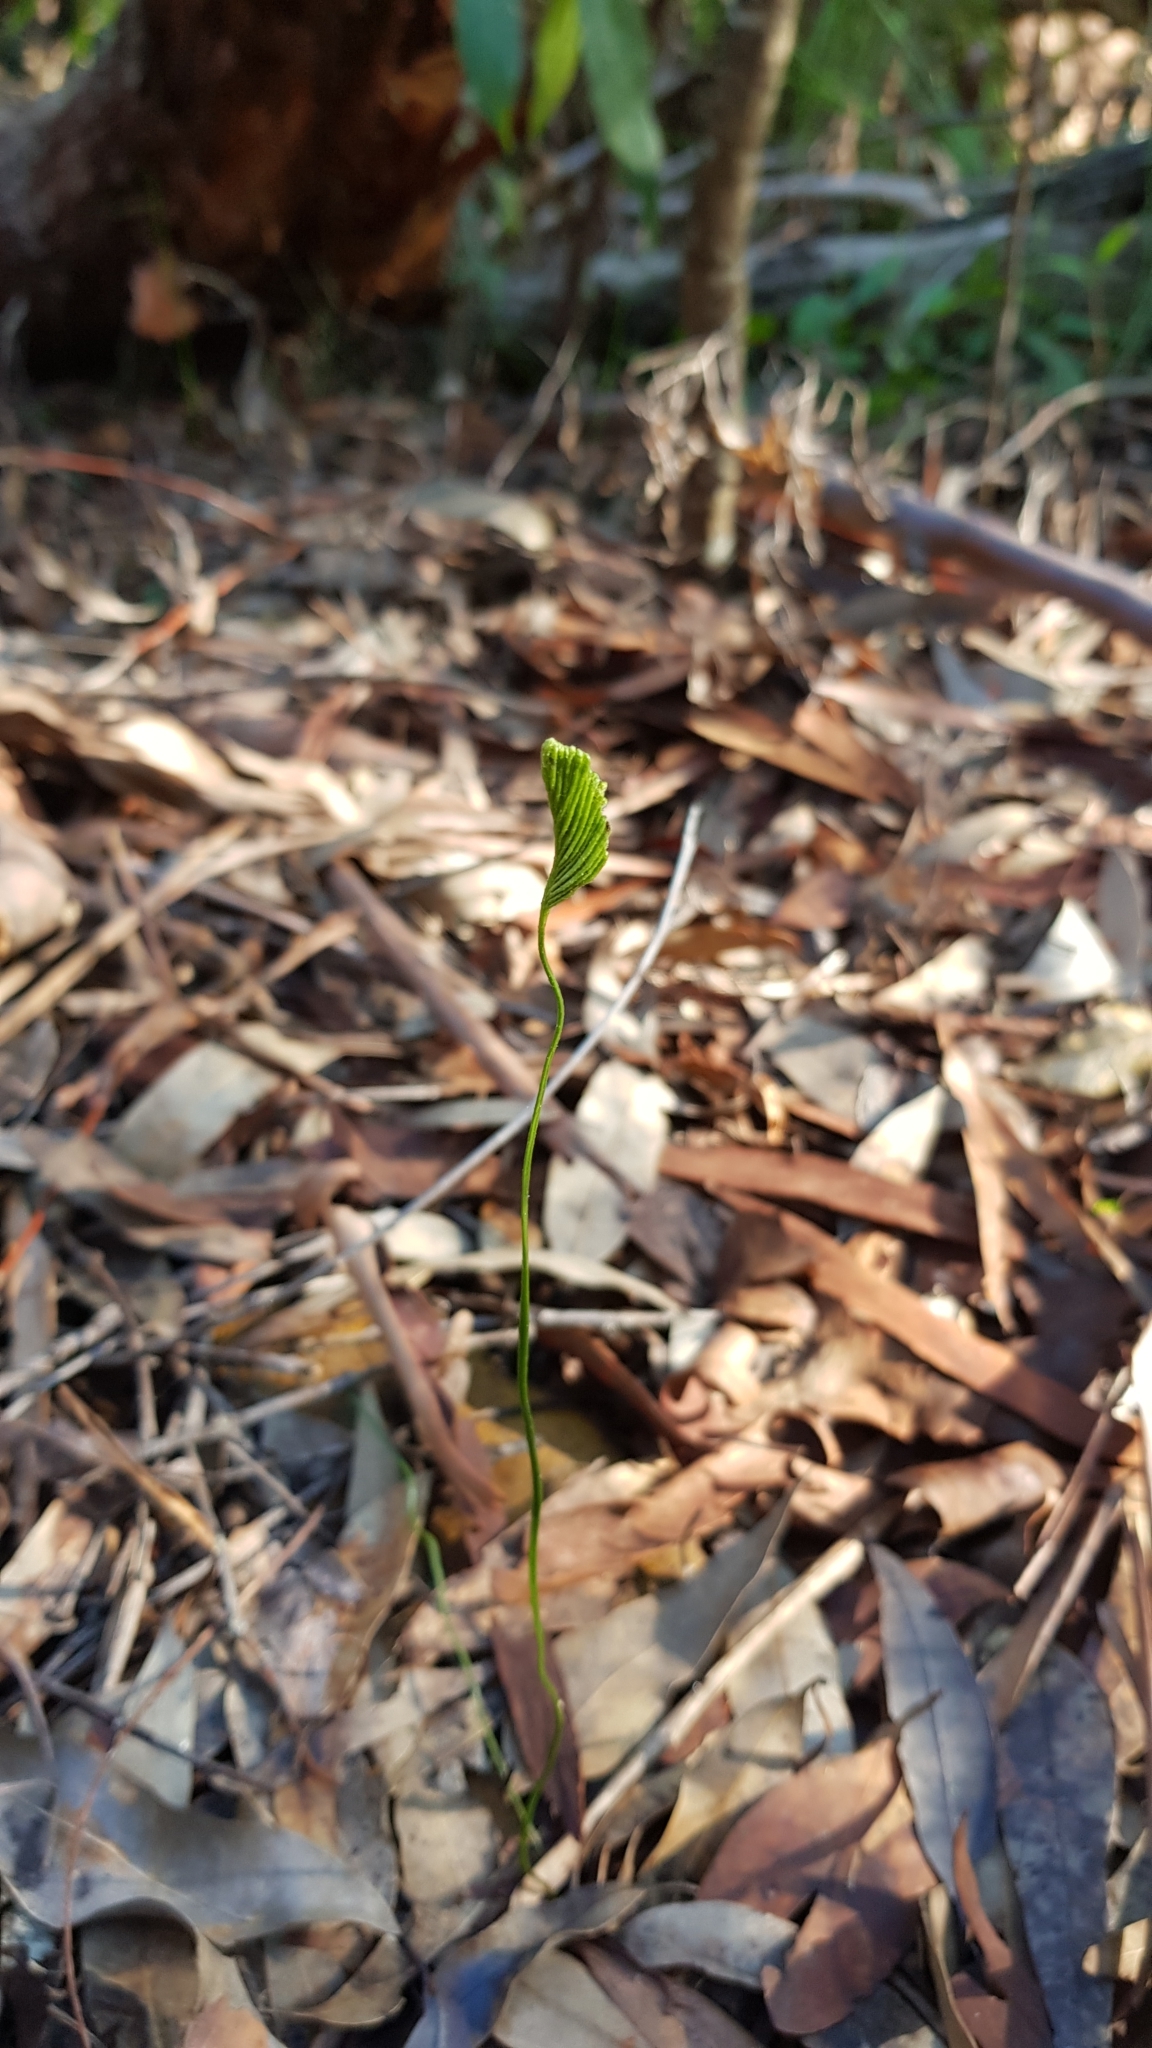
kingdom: Plantae
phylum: Tracheophyta
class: Polypodiopsida
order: Schizaeales
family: Schizaeaceae
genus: Schizaea
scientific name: Schizaea bifida
